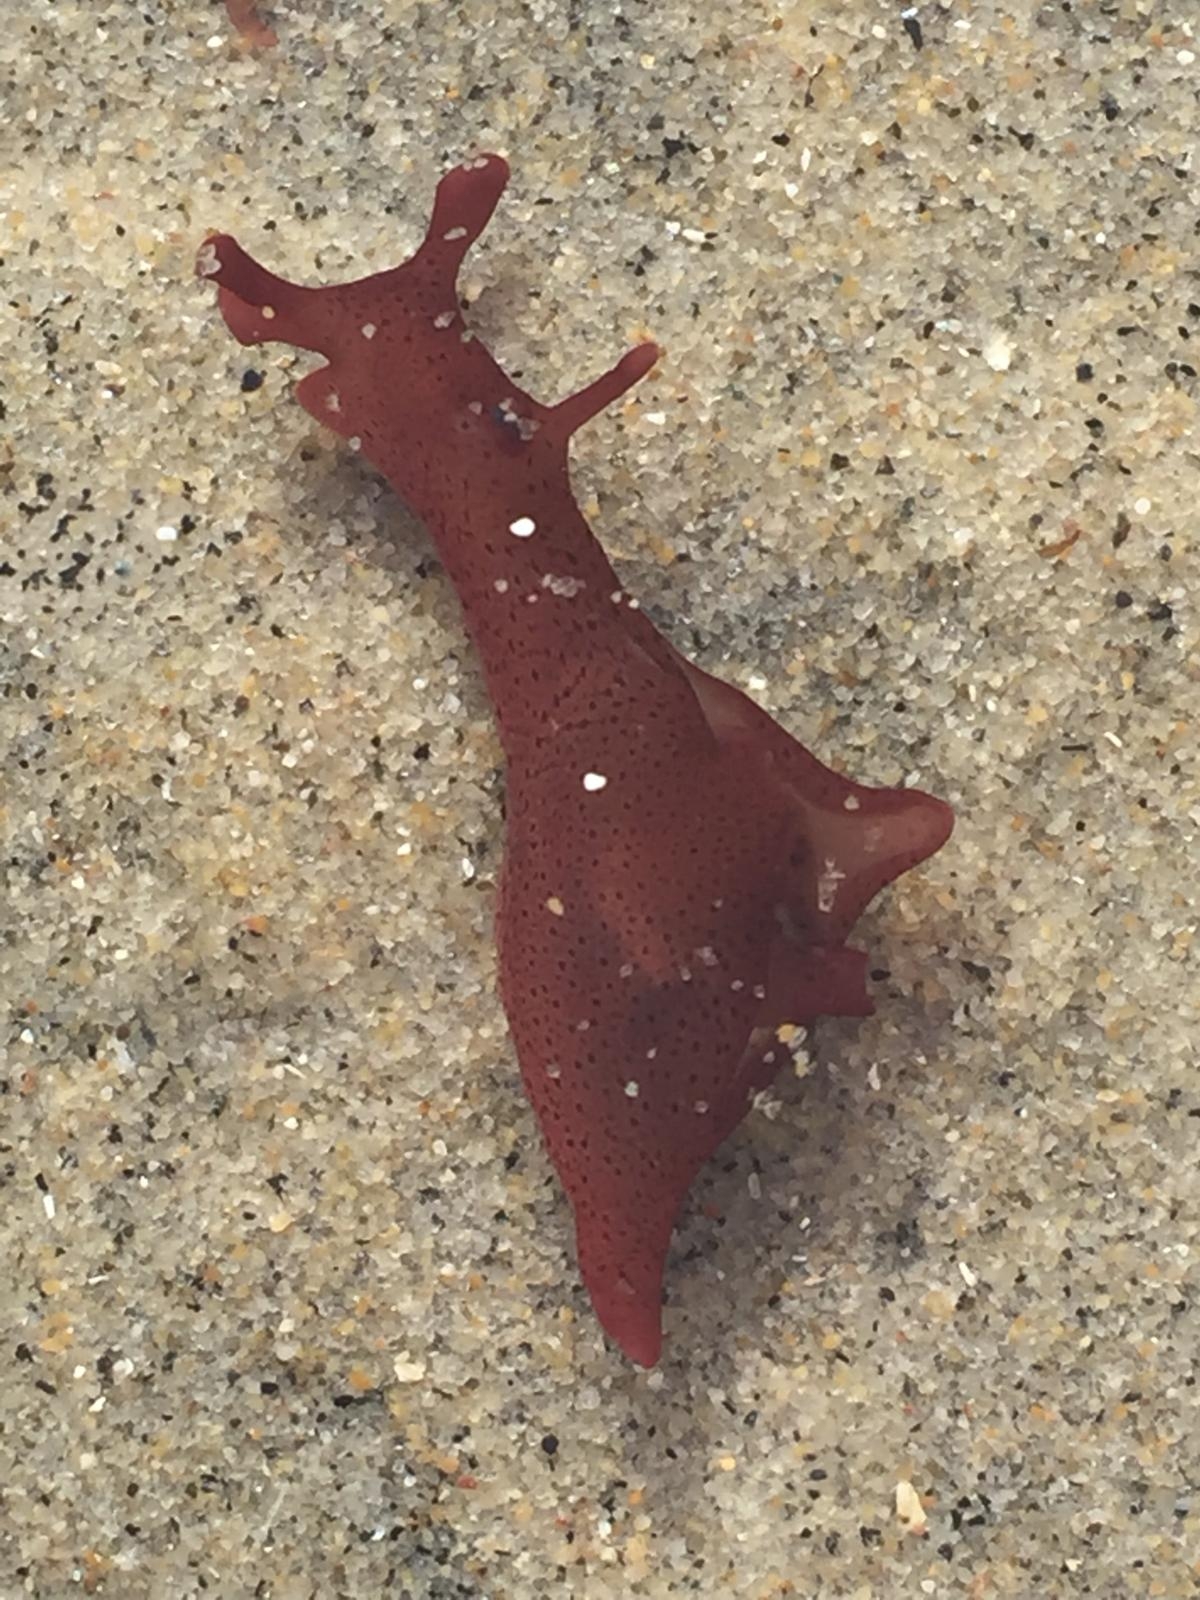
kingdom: Animalia
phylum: Mollusca
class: Gastropoda
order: Aplysiida
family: Aplysiidae
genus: Aplysia
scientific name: Aplysia californica
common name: California seahare
